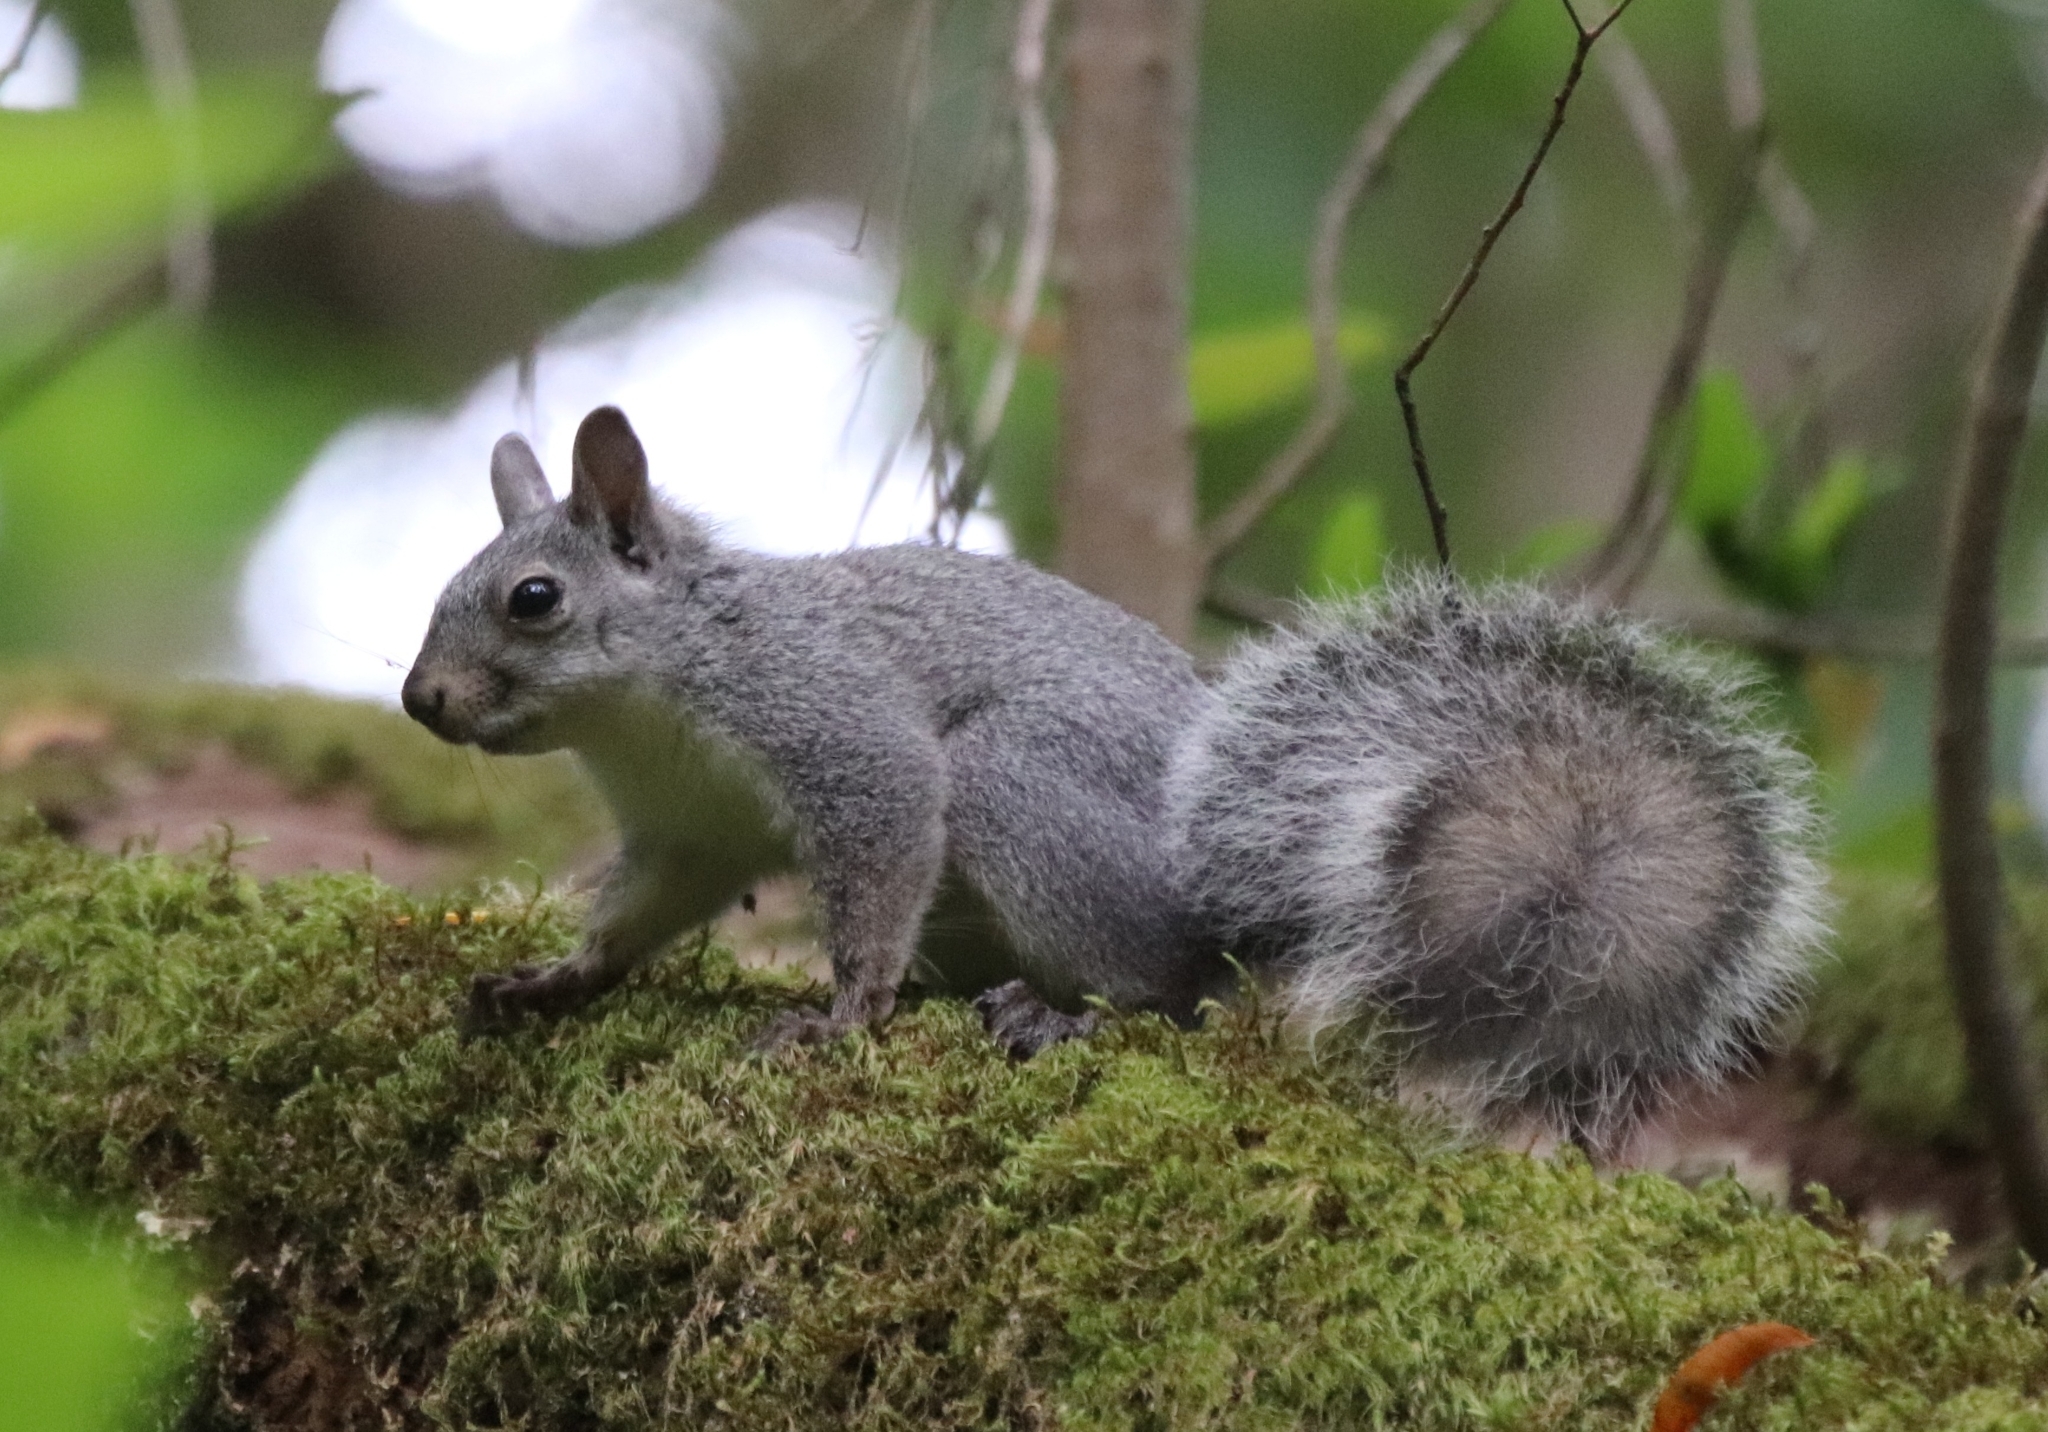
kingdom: Animalia
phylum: Chordata
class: Mammalia
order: Rodentia
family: Sciuridae
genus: Sciurus
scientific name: Sciurus griseus
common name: Western gray squirrel
